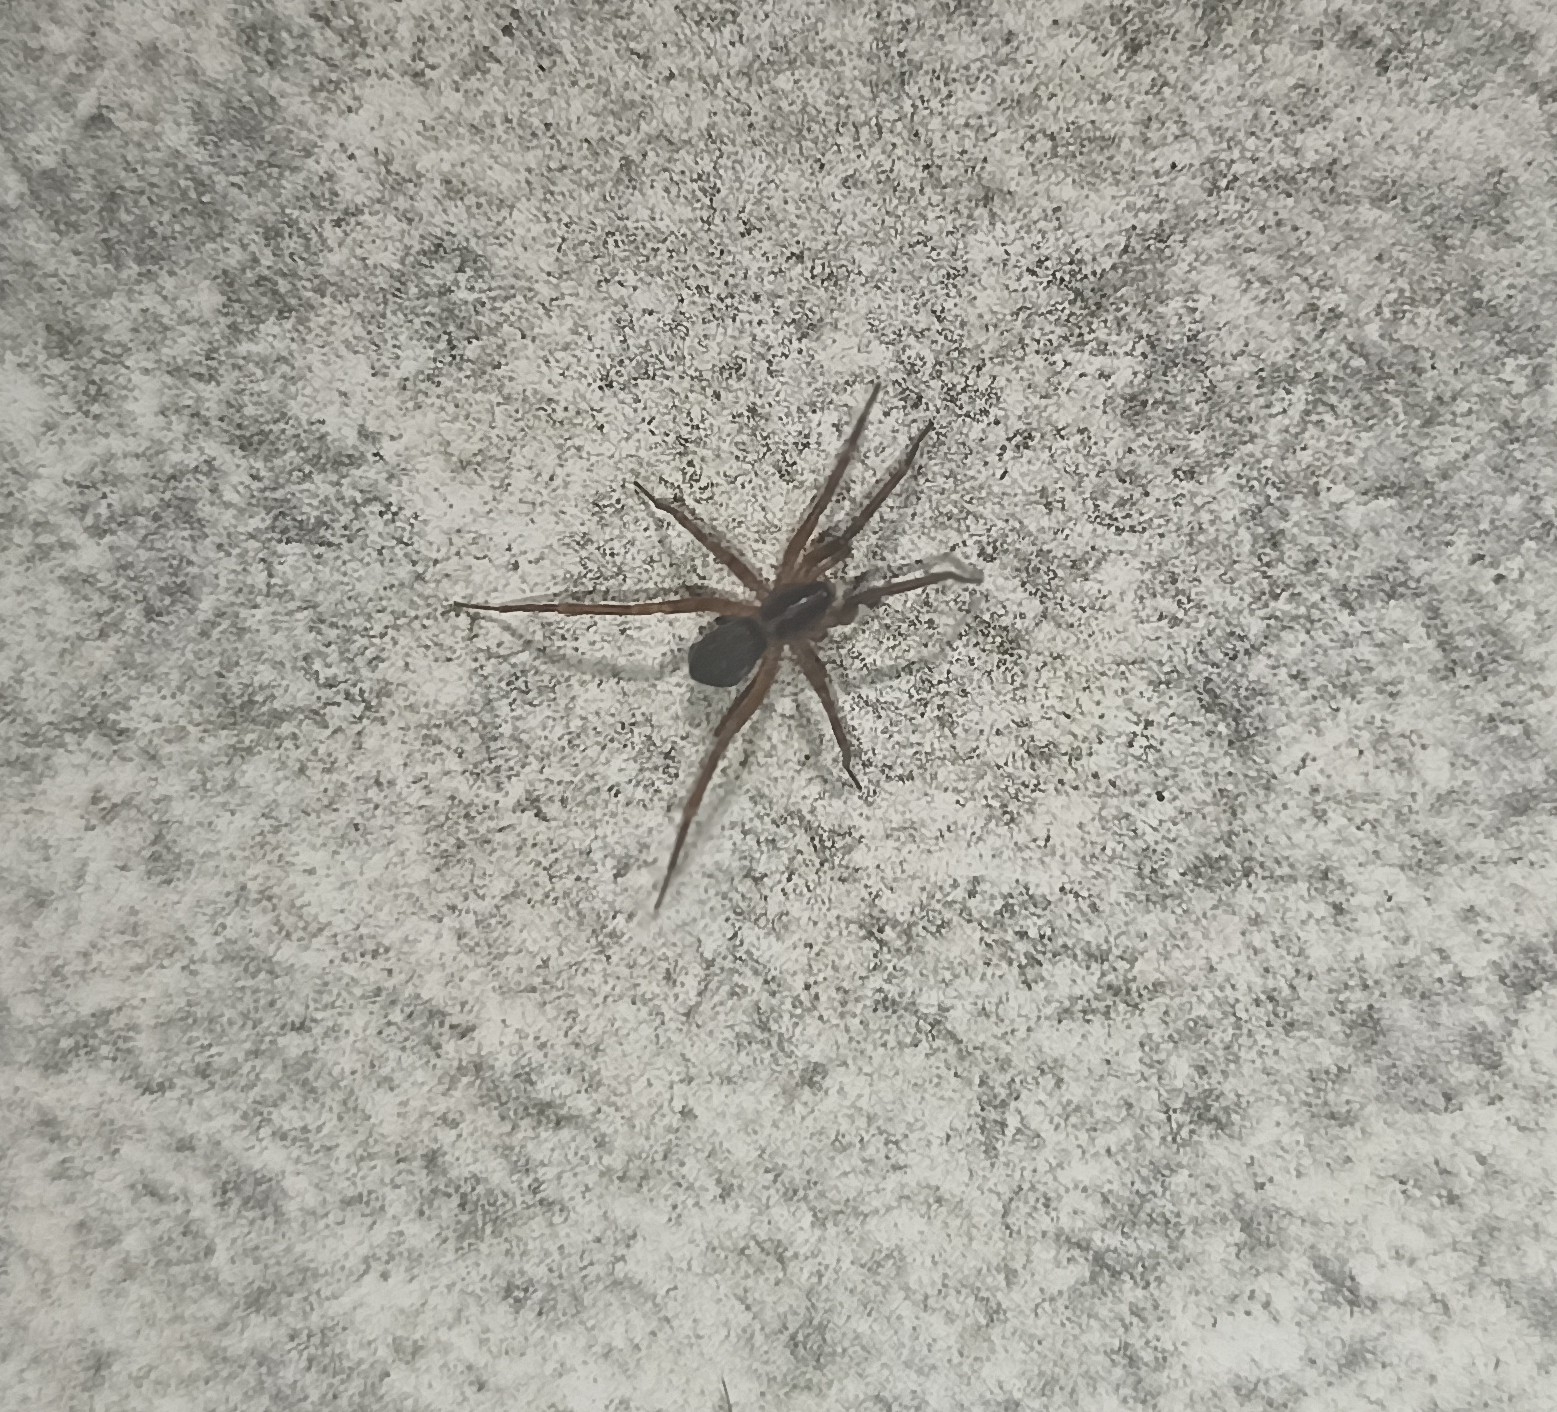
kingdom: Animalia
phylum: Arthropoda
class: Arachnida
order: Araneae
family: Liocranidae
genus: Scotina
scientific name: Scotina celans
